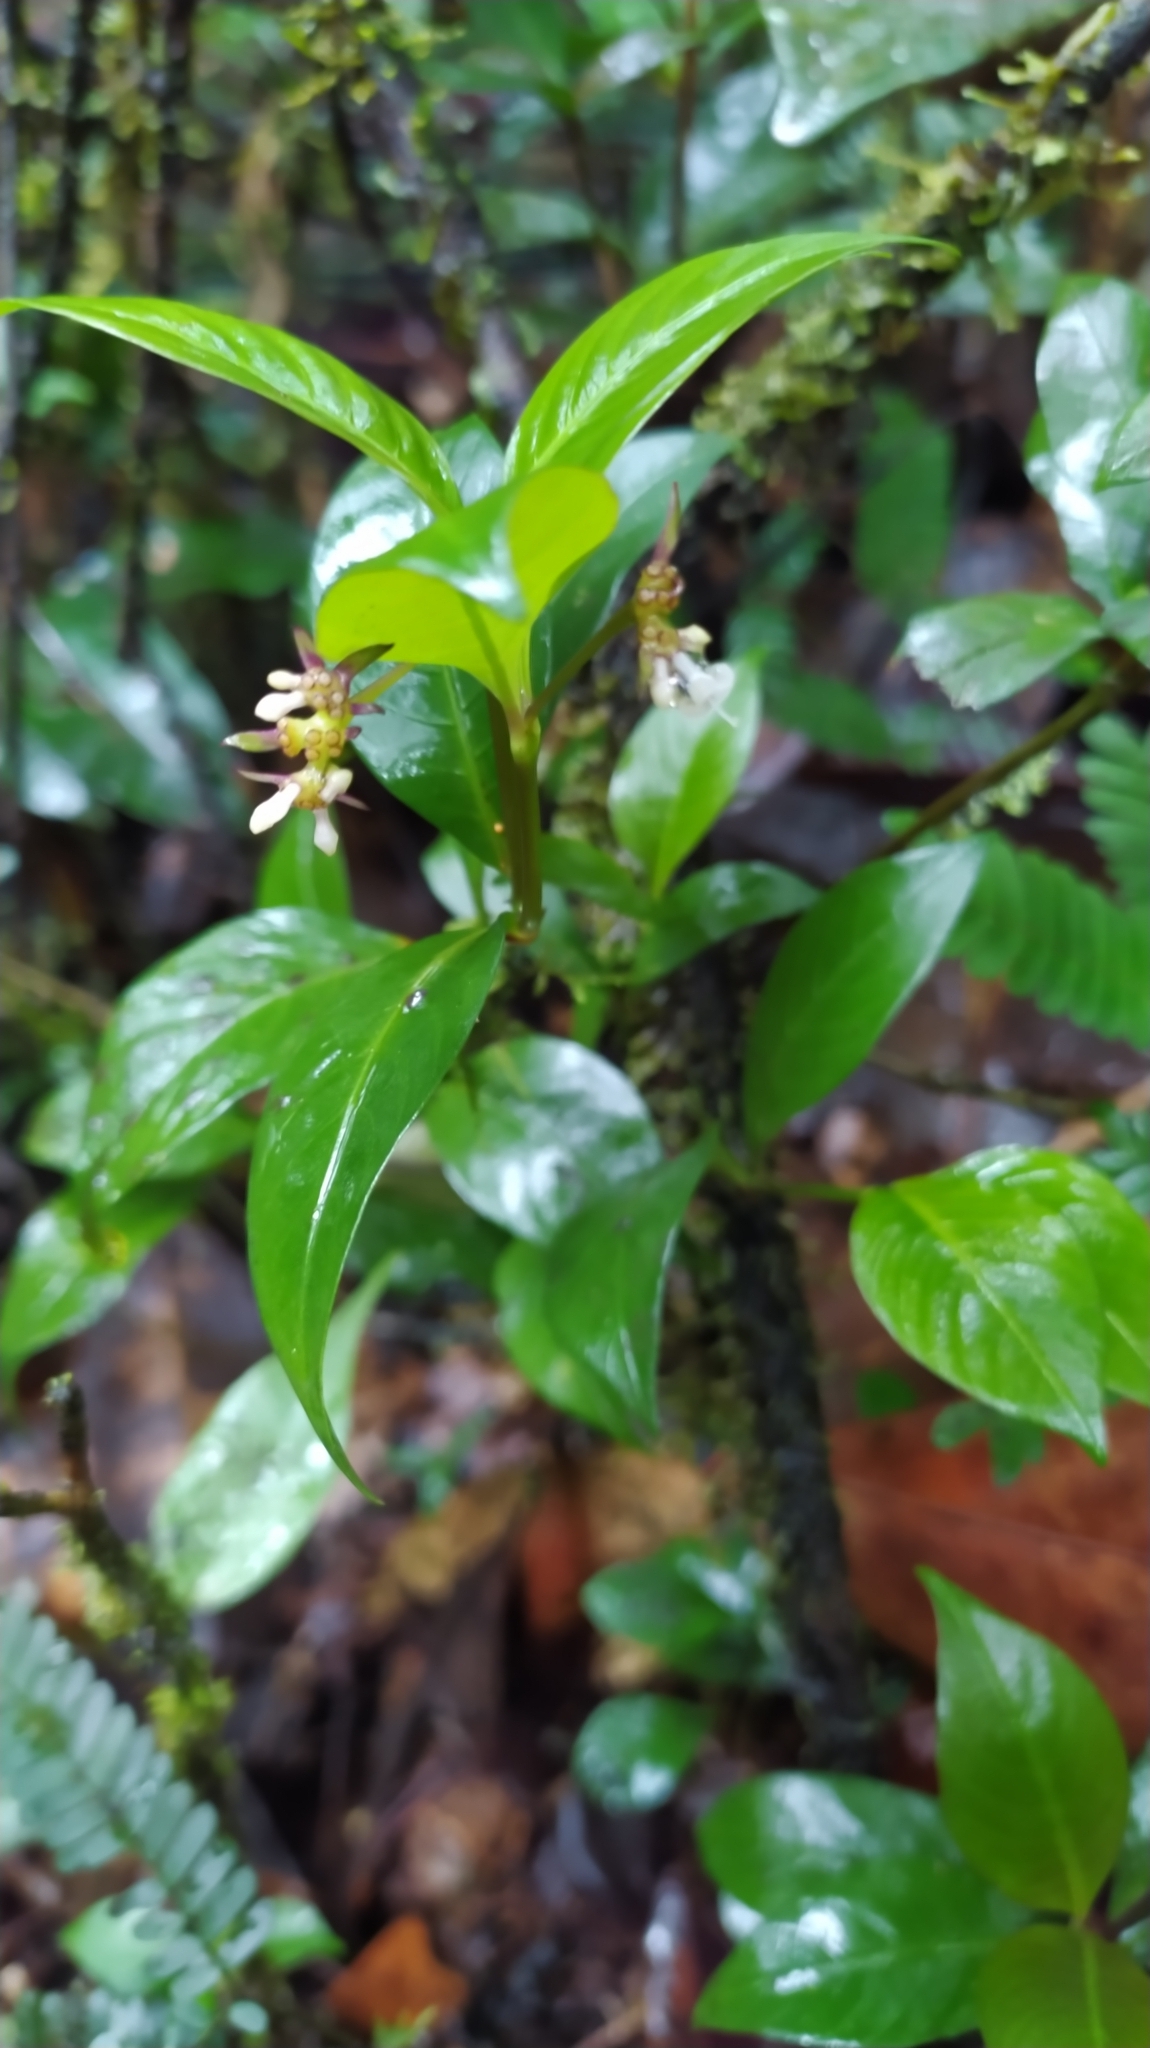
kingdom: Plantae
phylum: Tracheophyta
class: Magnoliopsida
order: Gentianales
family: Rubiaceae
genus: Palicourea
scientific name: Palicourea hoffmannseggiana
